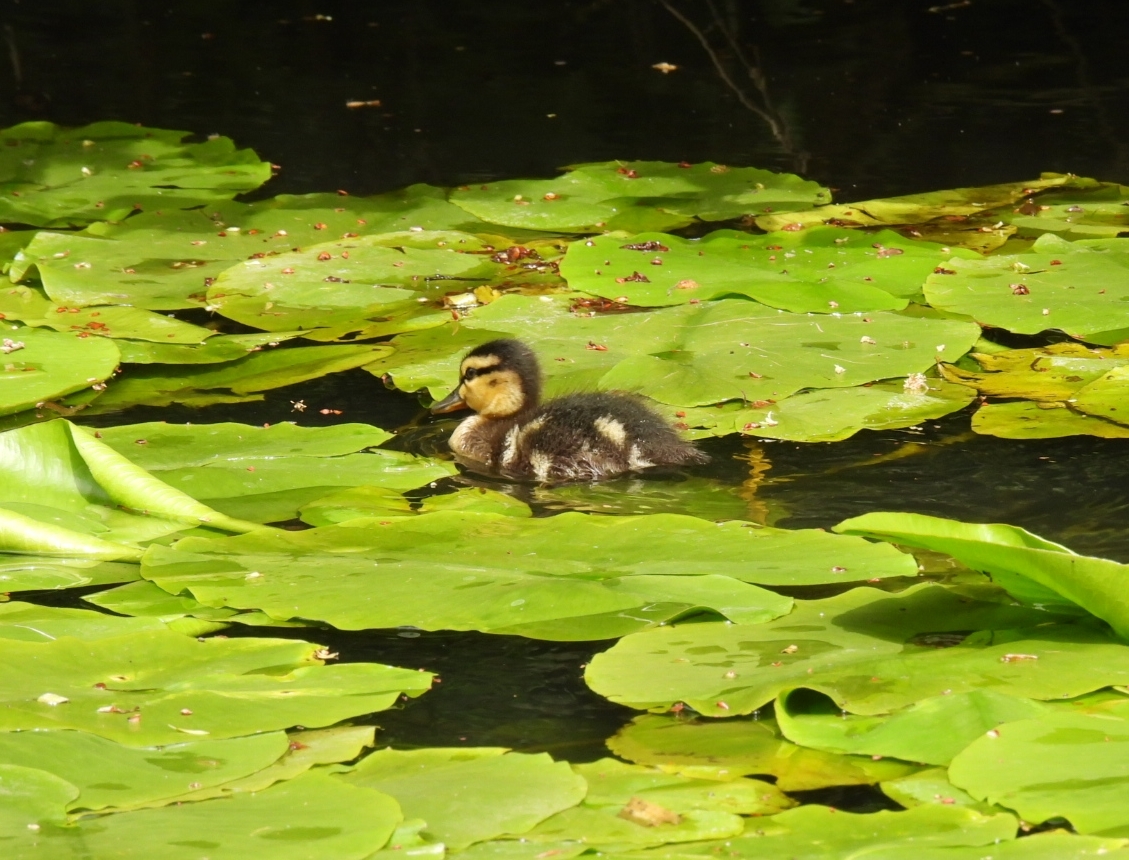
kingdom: Animalia
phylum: Chordata
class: Aves
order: Anseriformes
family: Anatidae
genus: Anas
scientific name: Anas platyrhynchos
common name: Mallard
